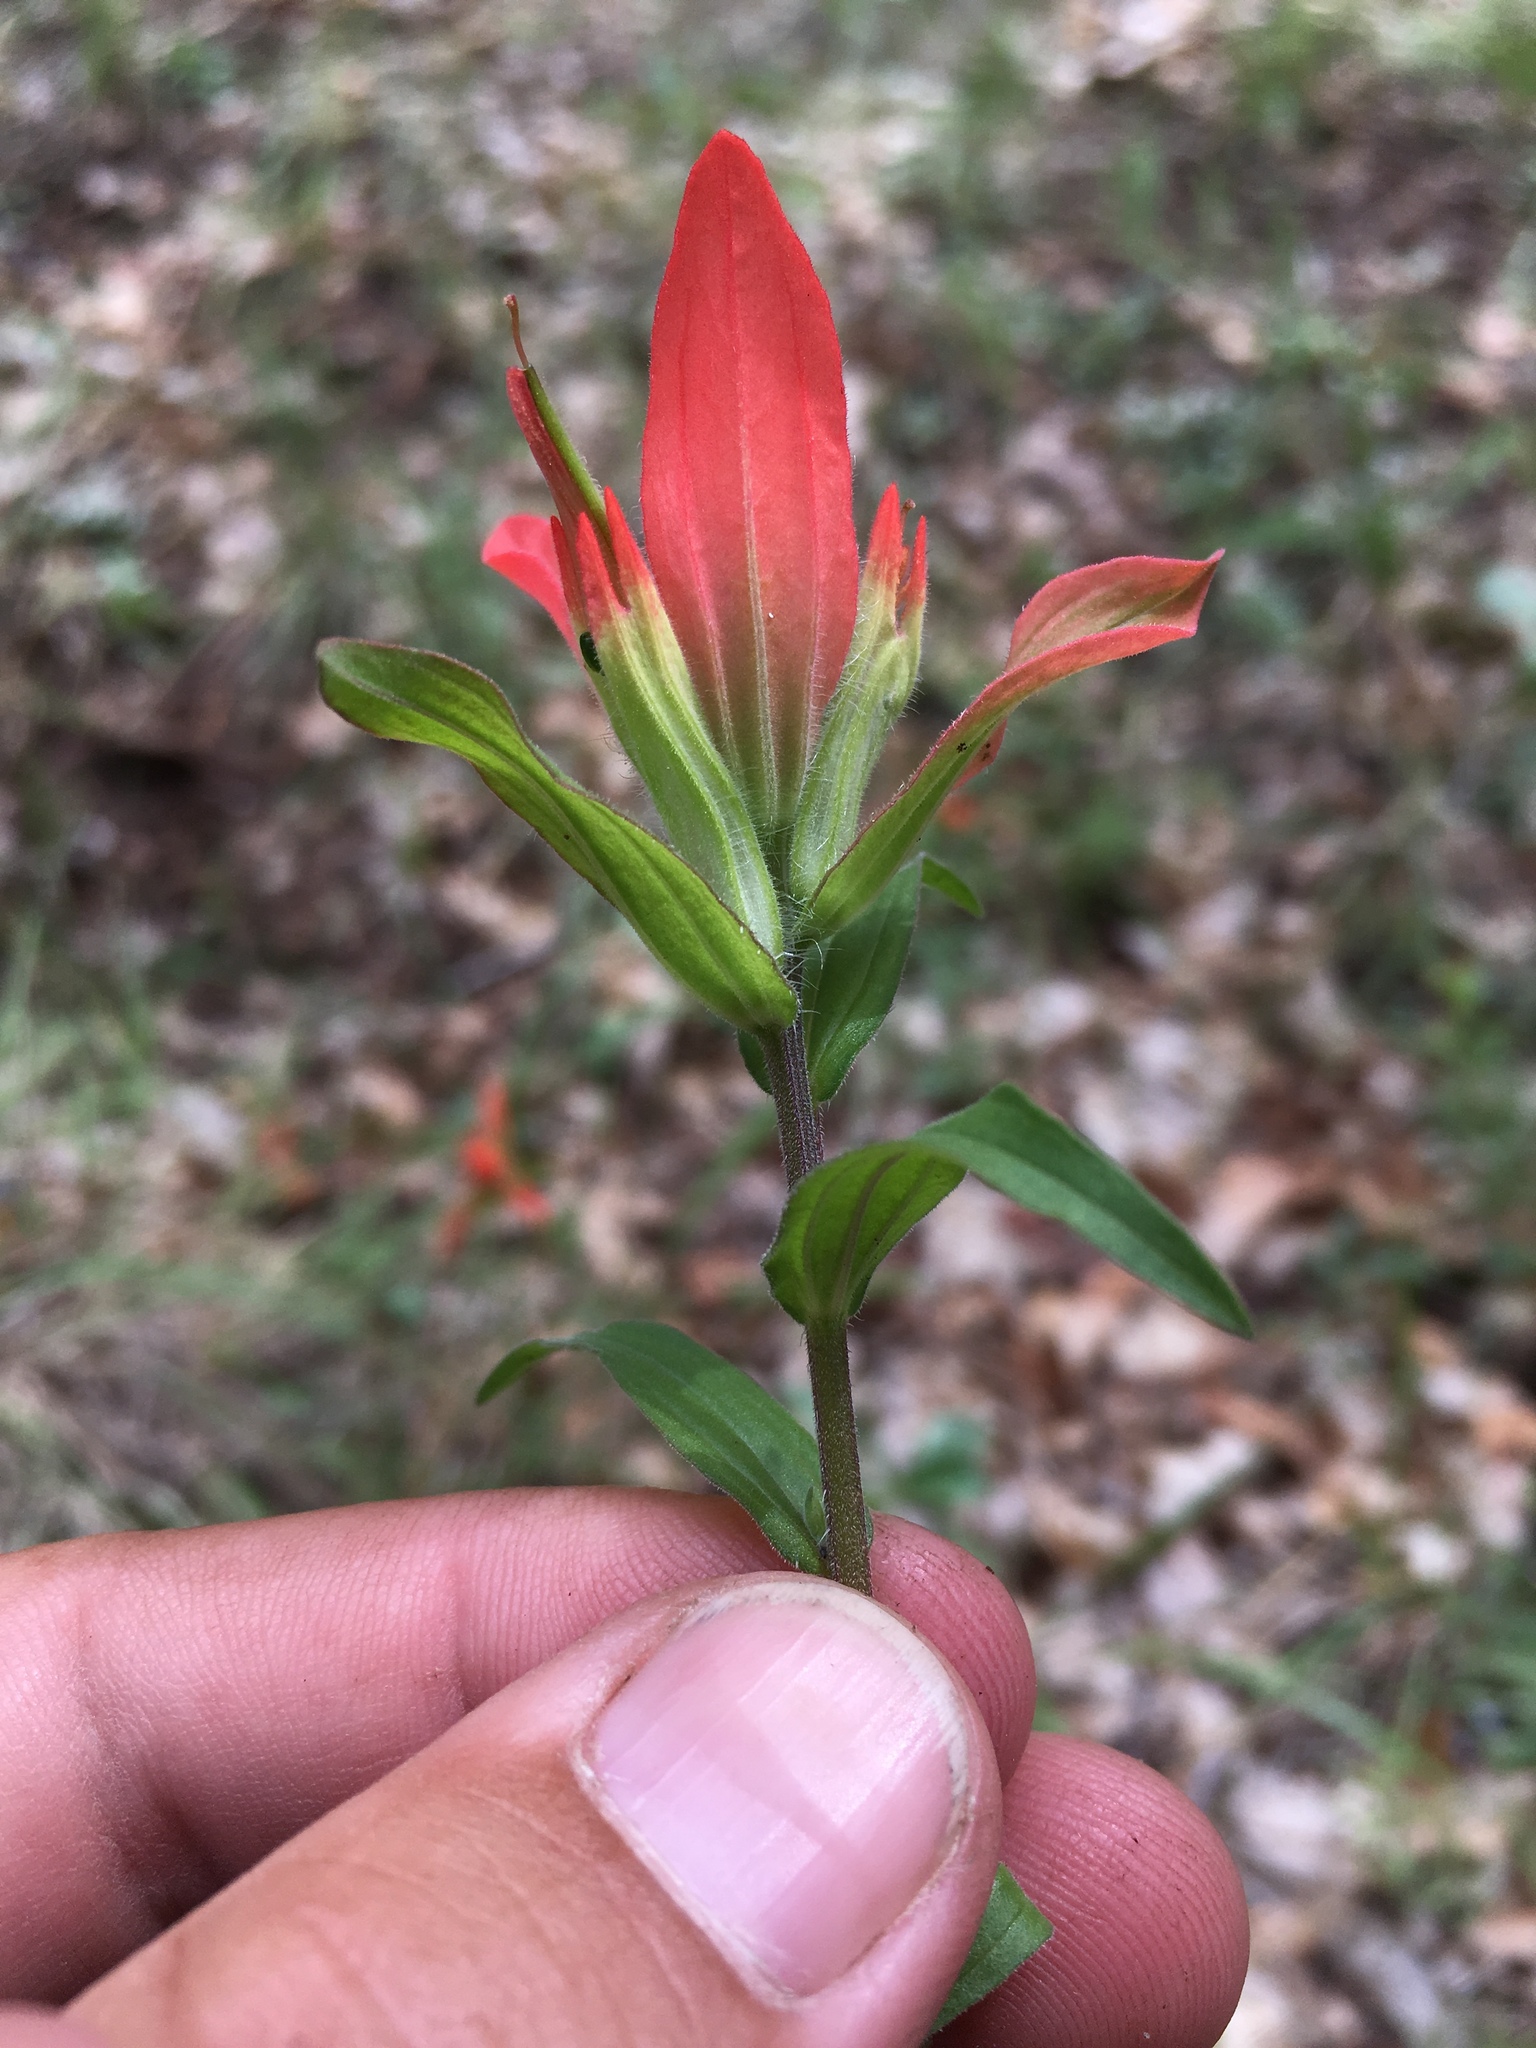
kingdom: Plantae
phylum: Tracheophyta
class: Magnoliopsida
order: Lamiales
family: Orobanchaceae
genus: Castilleja
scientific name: Castilleja nelsonii
